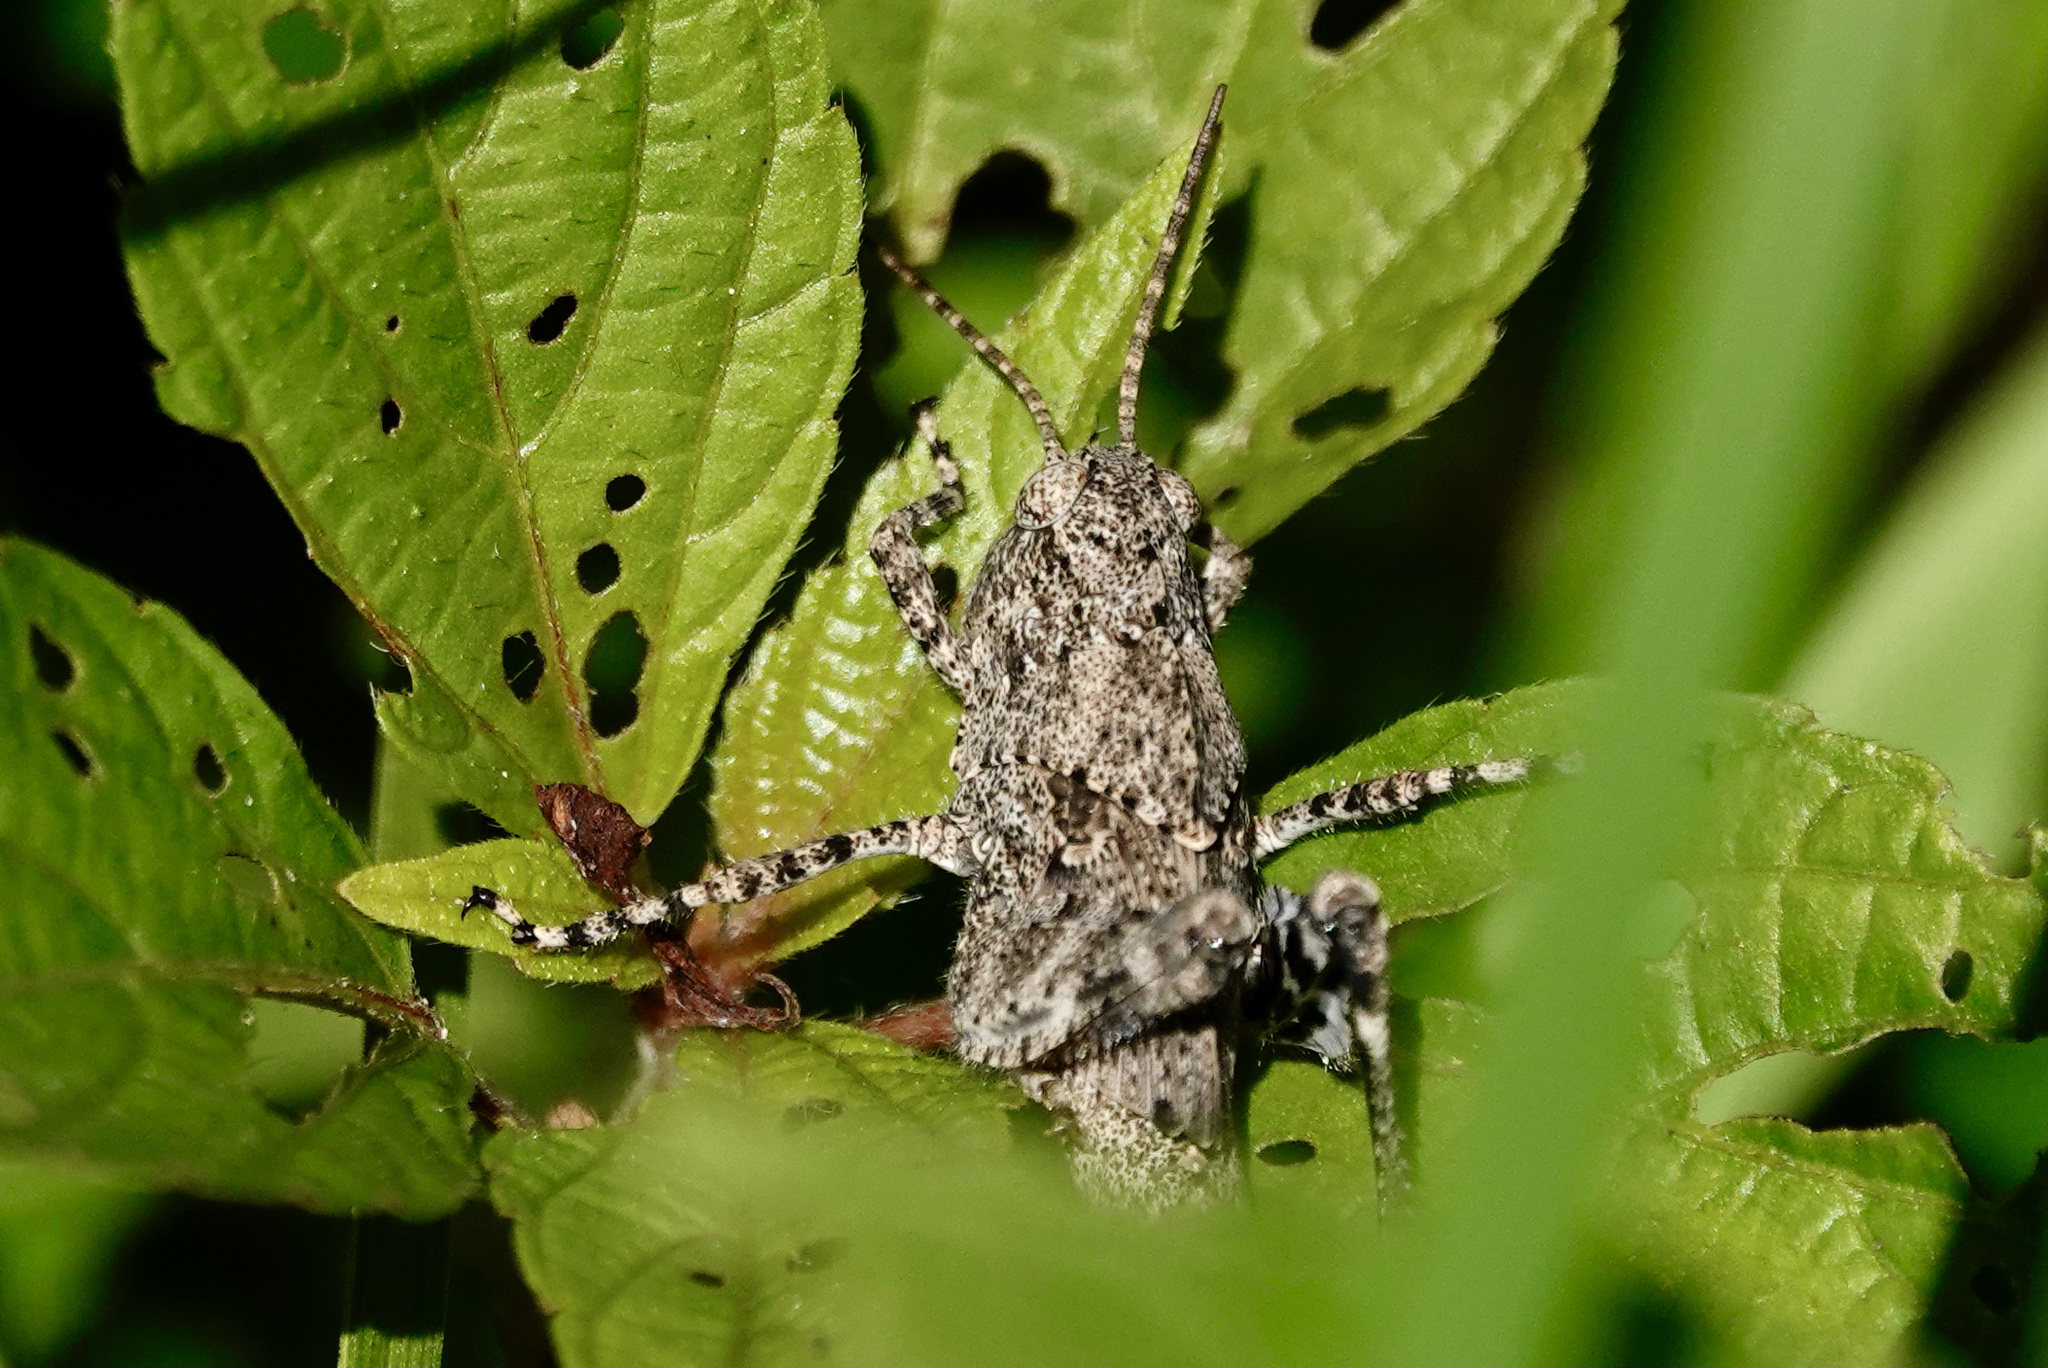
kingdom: Animalia
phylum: Arthropoda
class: Insecta
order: Orthoptera
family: Acrididae
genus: Dissosteira
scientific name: Dissosteira carolina
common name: Carolina grasshopper
